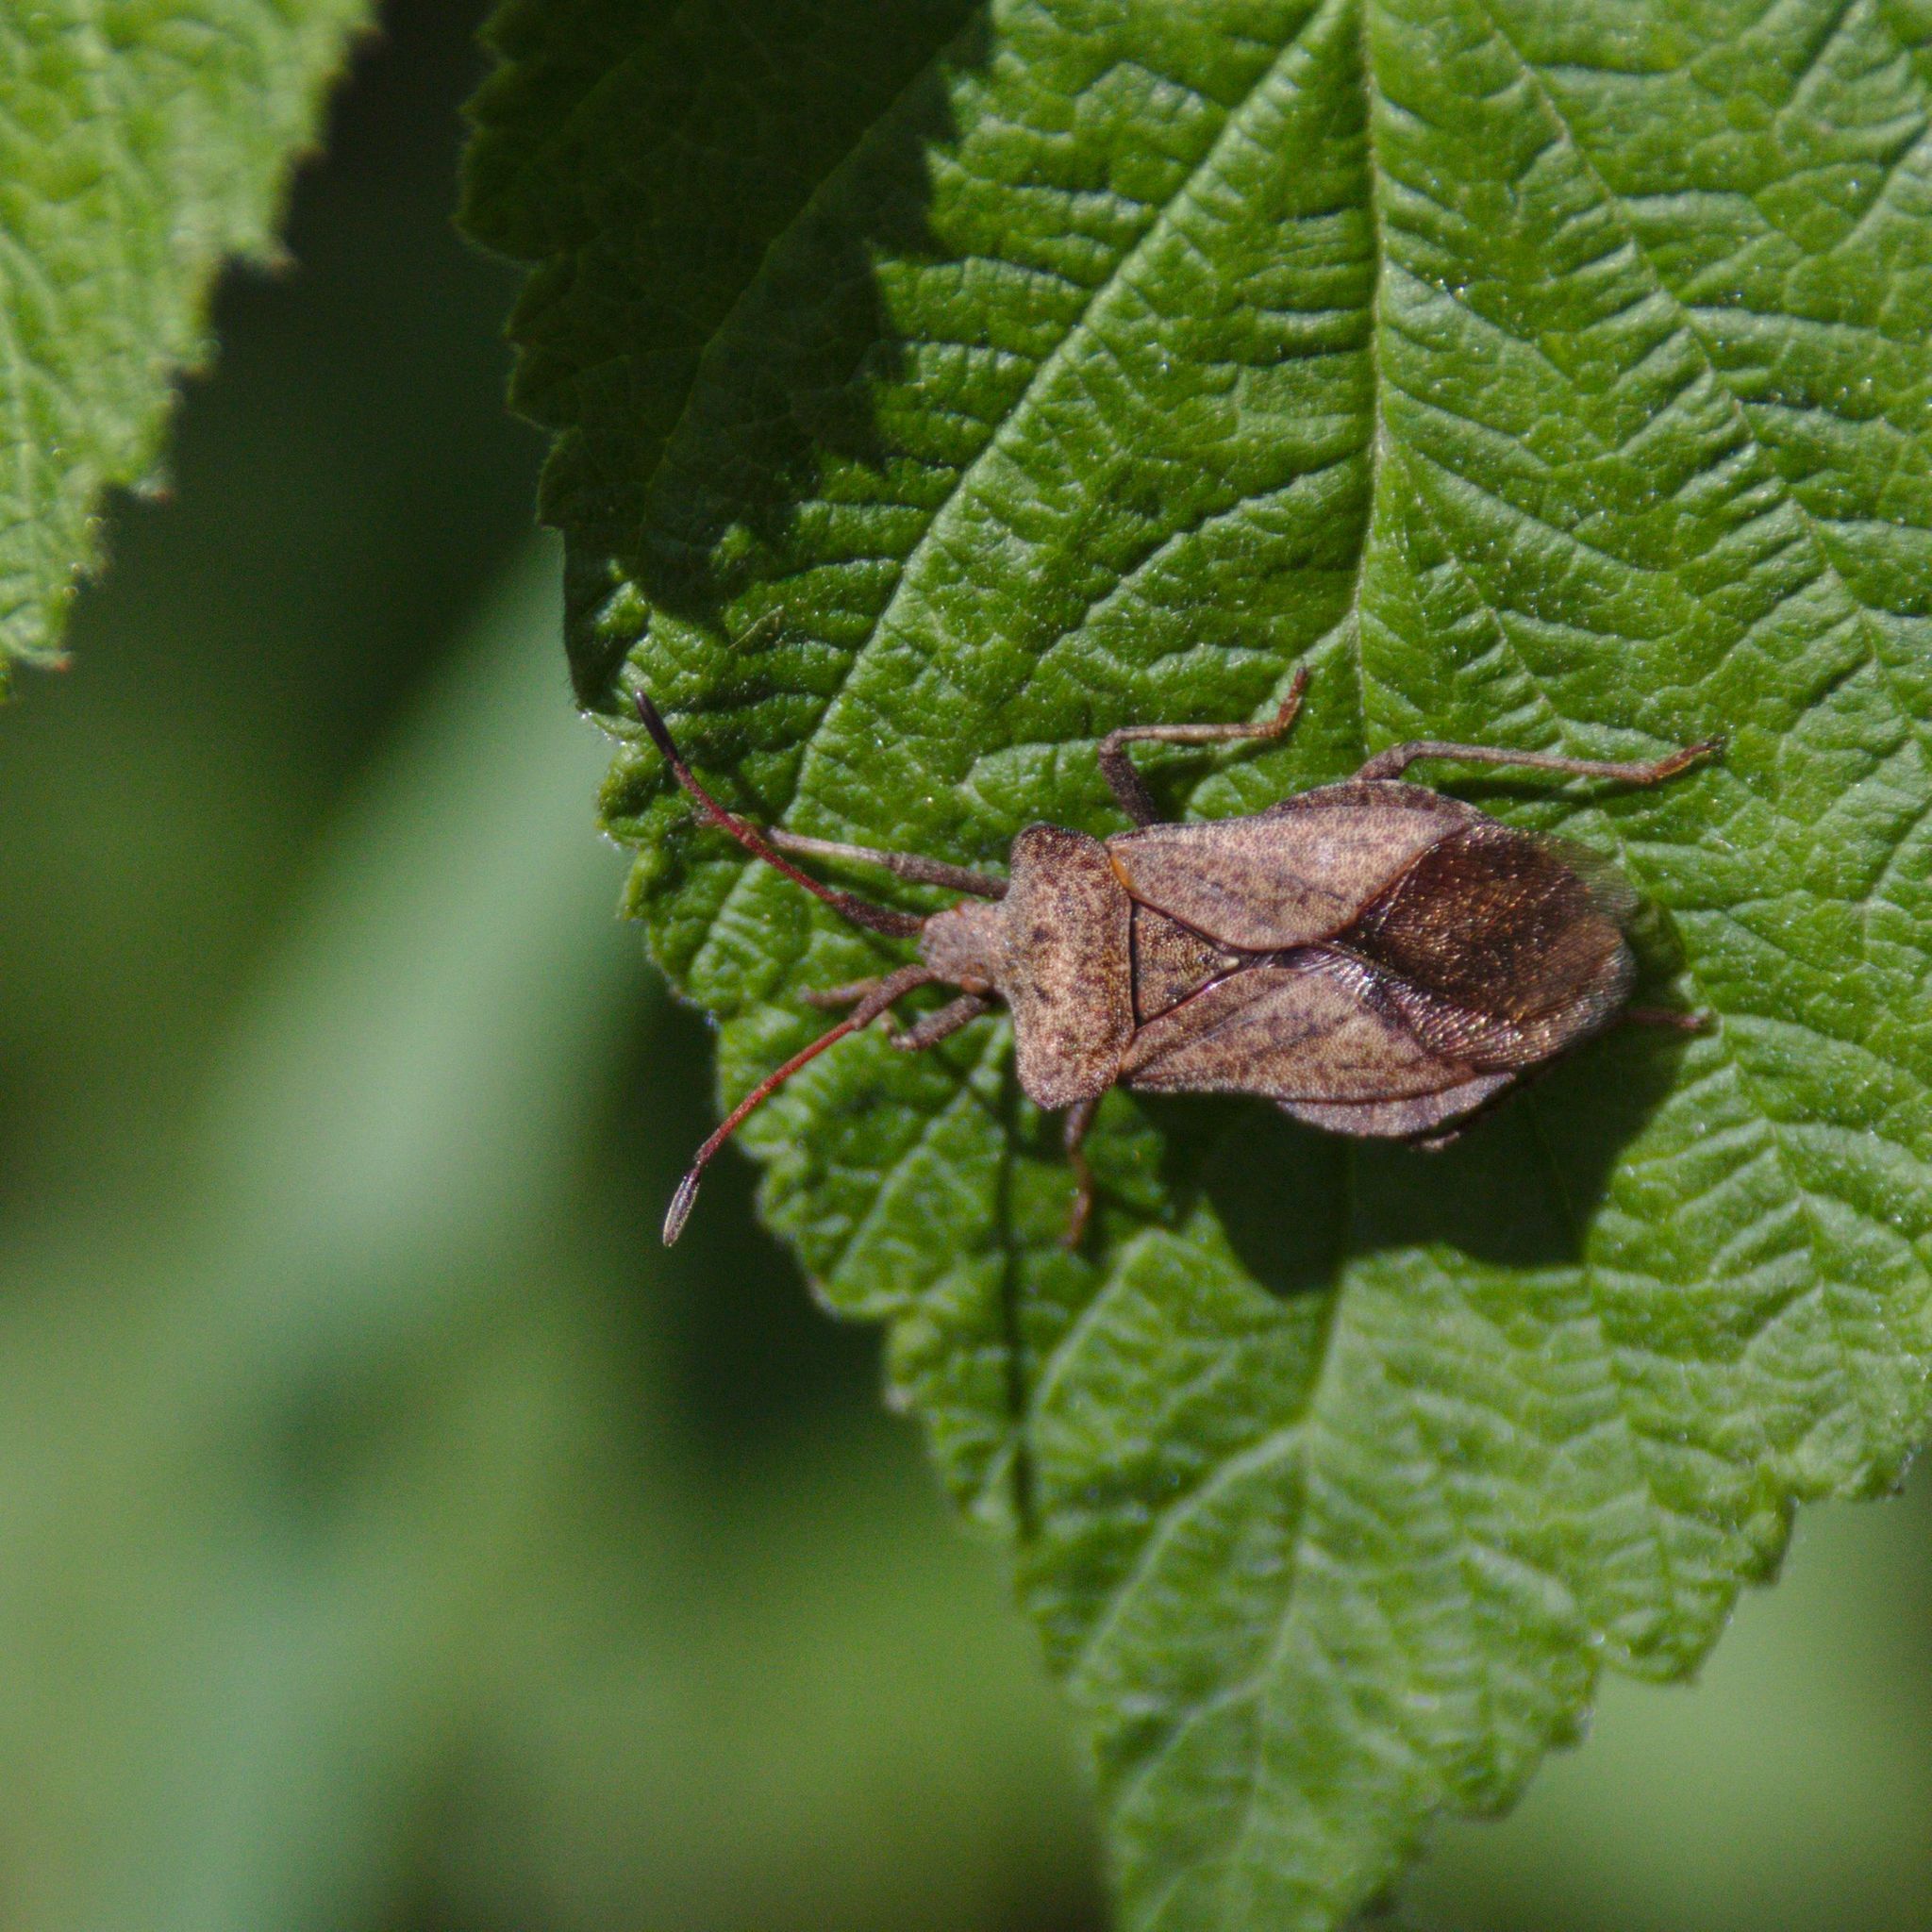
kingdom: Animalia
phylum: Arthropoda
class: Insecta
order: Hemiptera
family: Coreidae
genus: Coreus
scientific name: Coreus marginatus
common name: Dock bug
